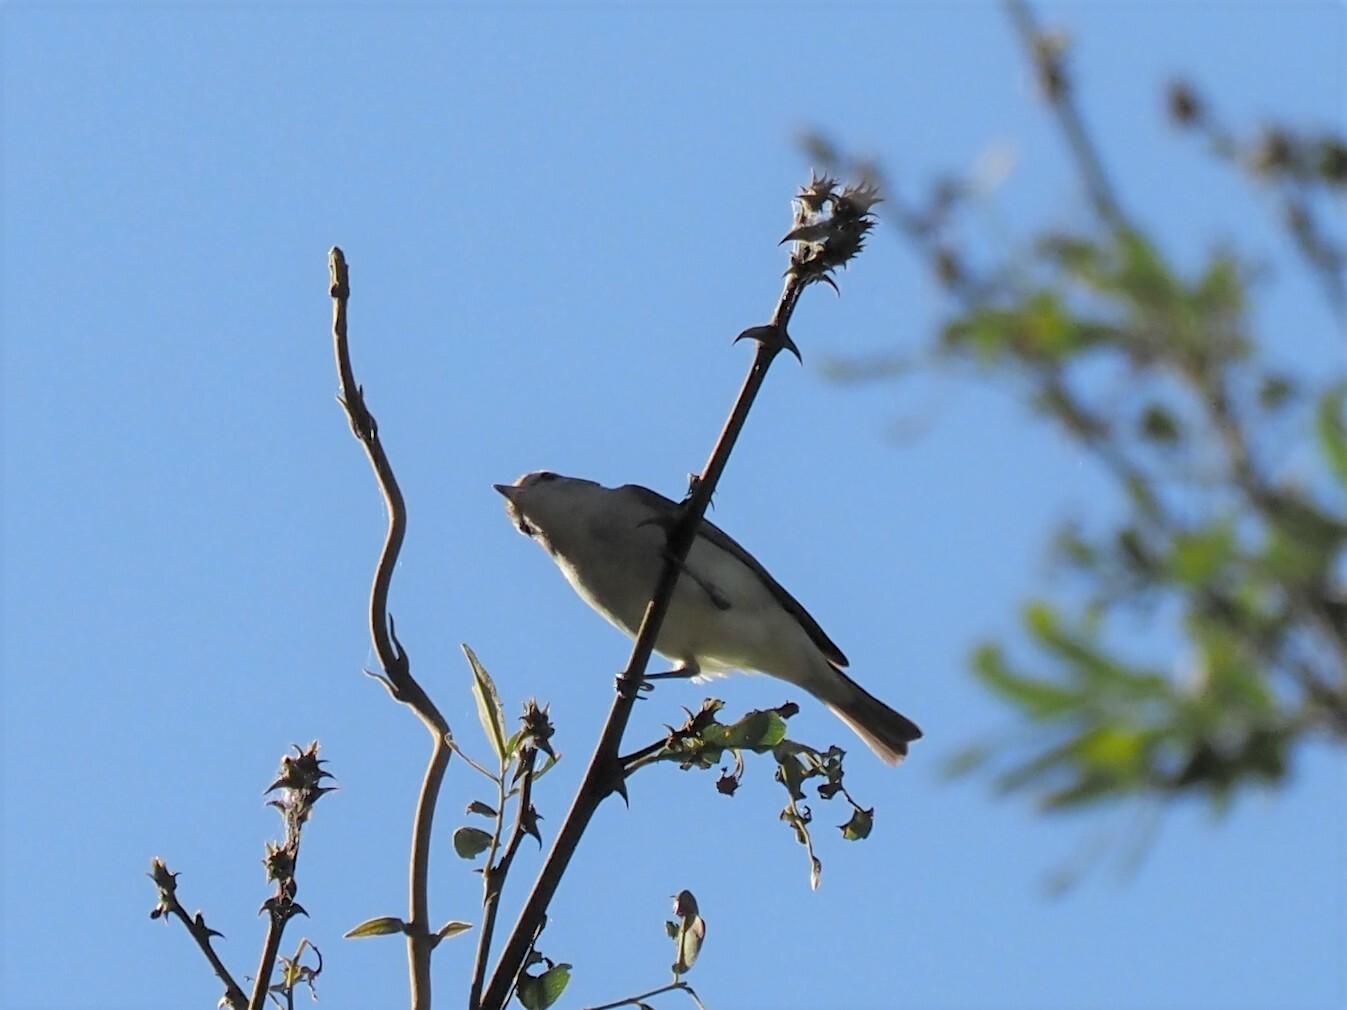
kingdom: Animalia
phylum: Chordata
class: Aves
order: Passeriformes
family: Vireonidae
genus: Vireo
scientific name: Vireo gilvus
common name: Warbling vireo
